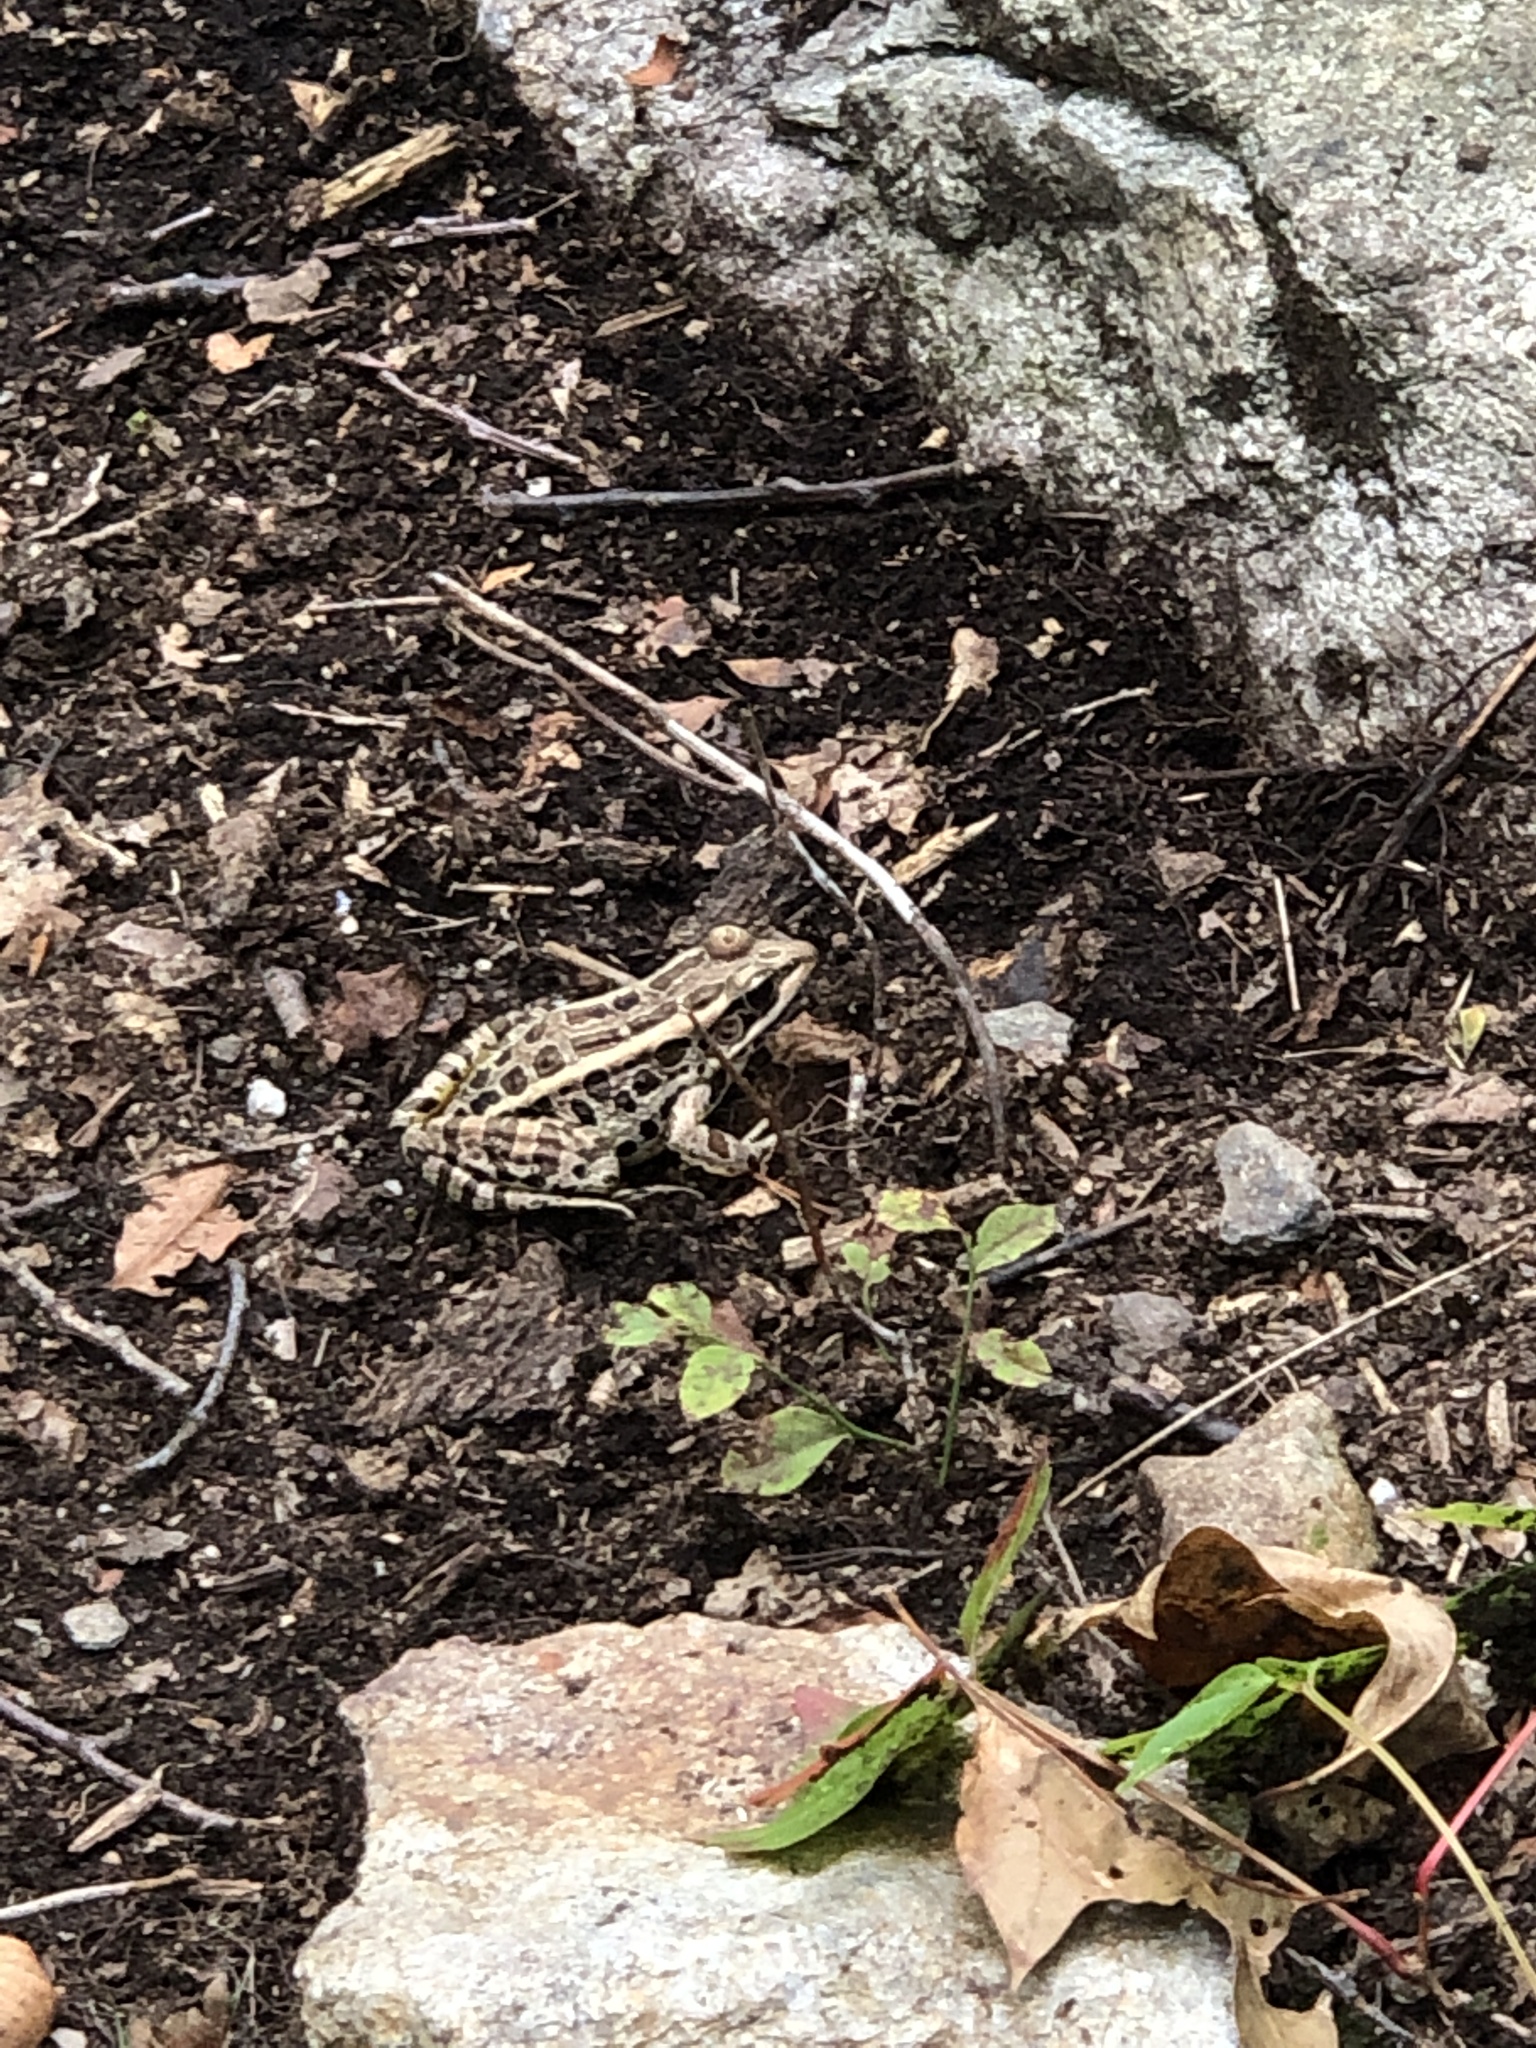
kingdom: Animalia
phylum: Chordata
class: Amphibia
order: Anura
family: Ranidae
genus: Lithobates
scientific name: Lithobates palustris
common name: Pickerel frog
